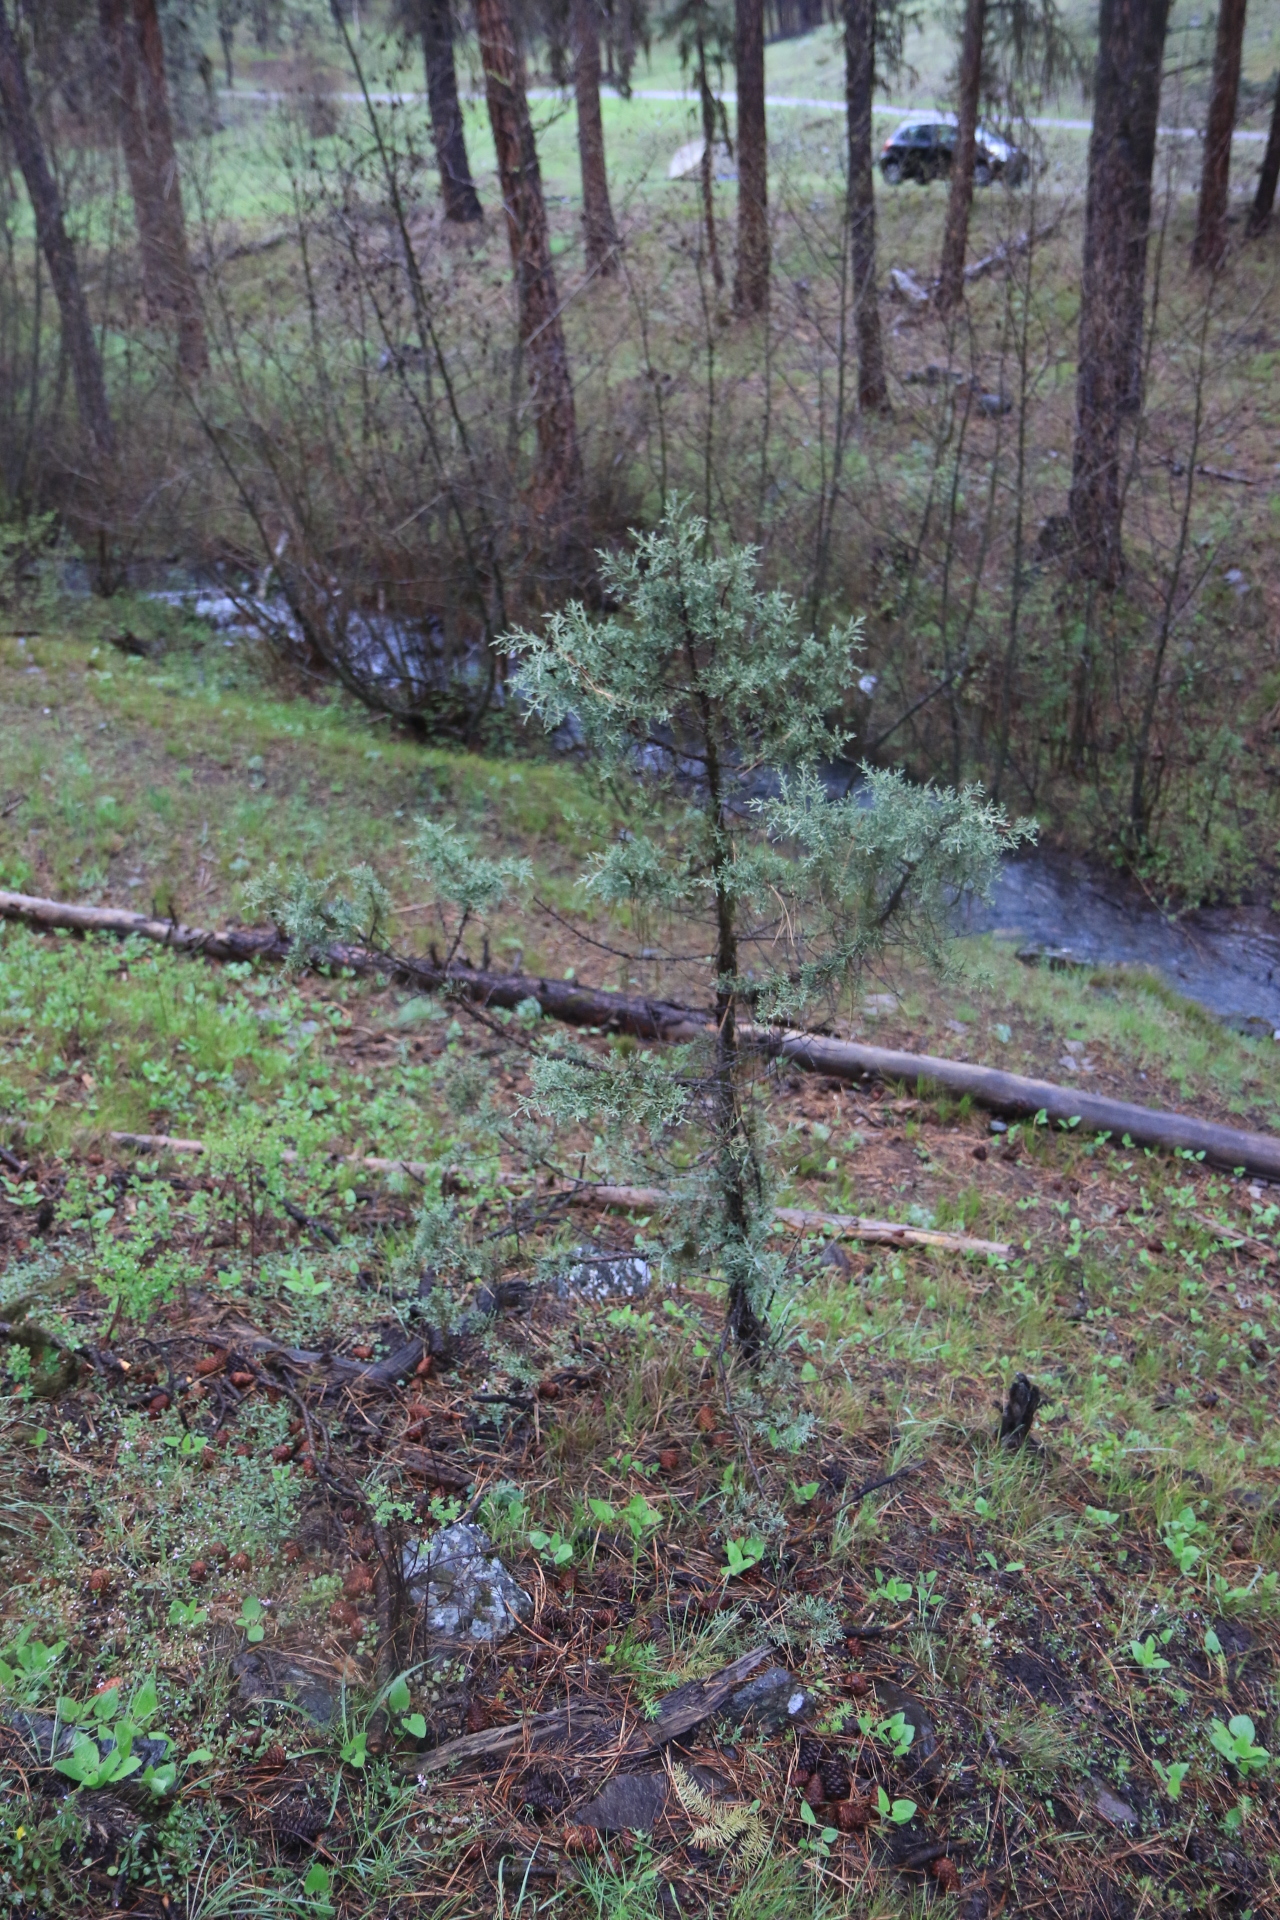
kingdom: Plantae
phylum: Tracheophyta
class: Pinopsida
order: Pinales
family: Cupressaceae
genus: Juniperus
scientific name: Juniperus occidentalis
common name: Western juniper
